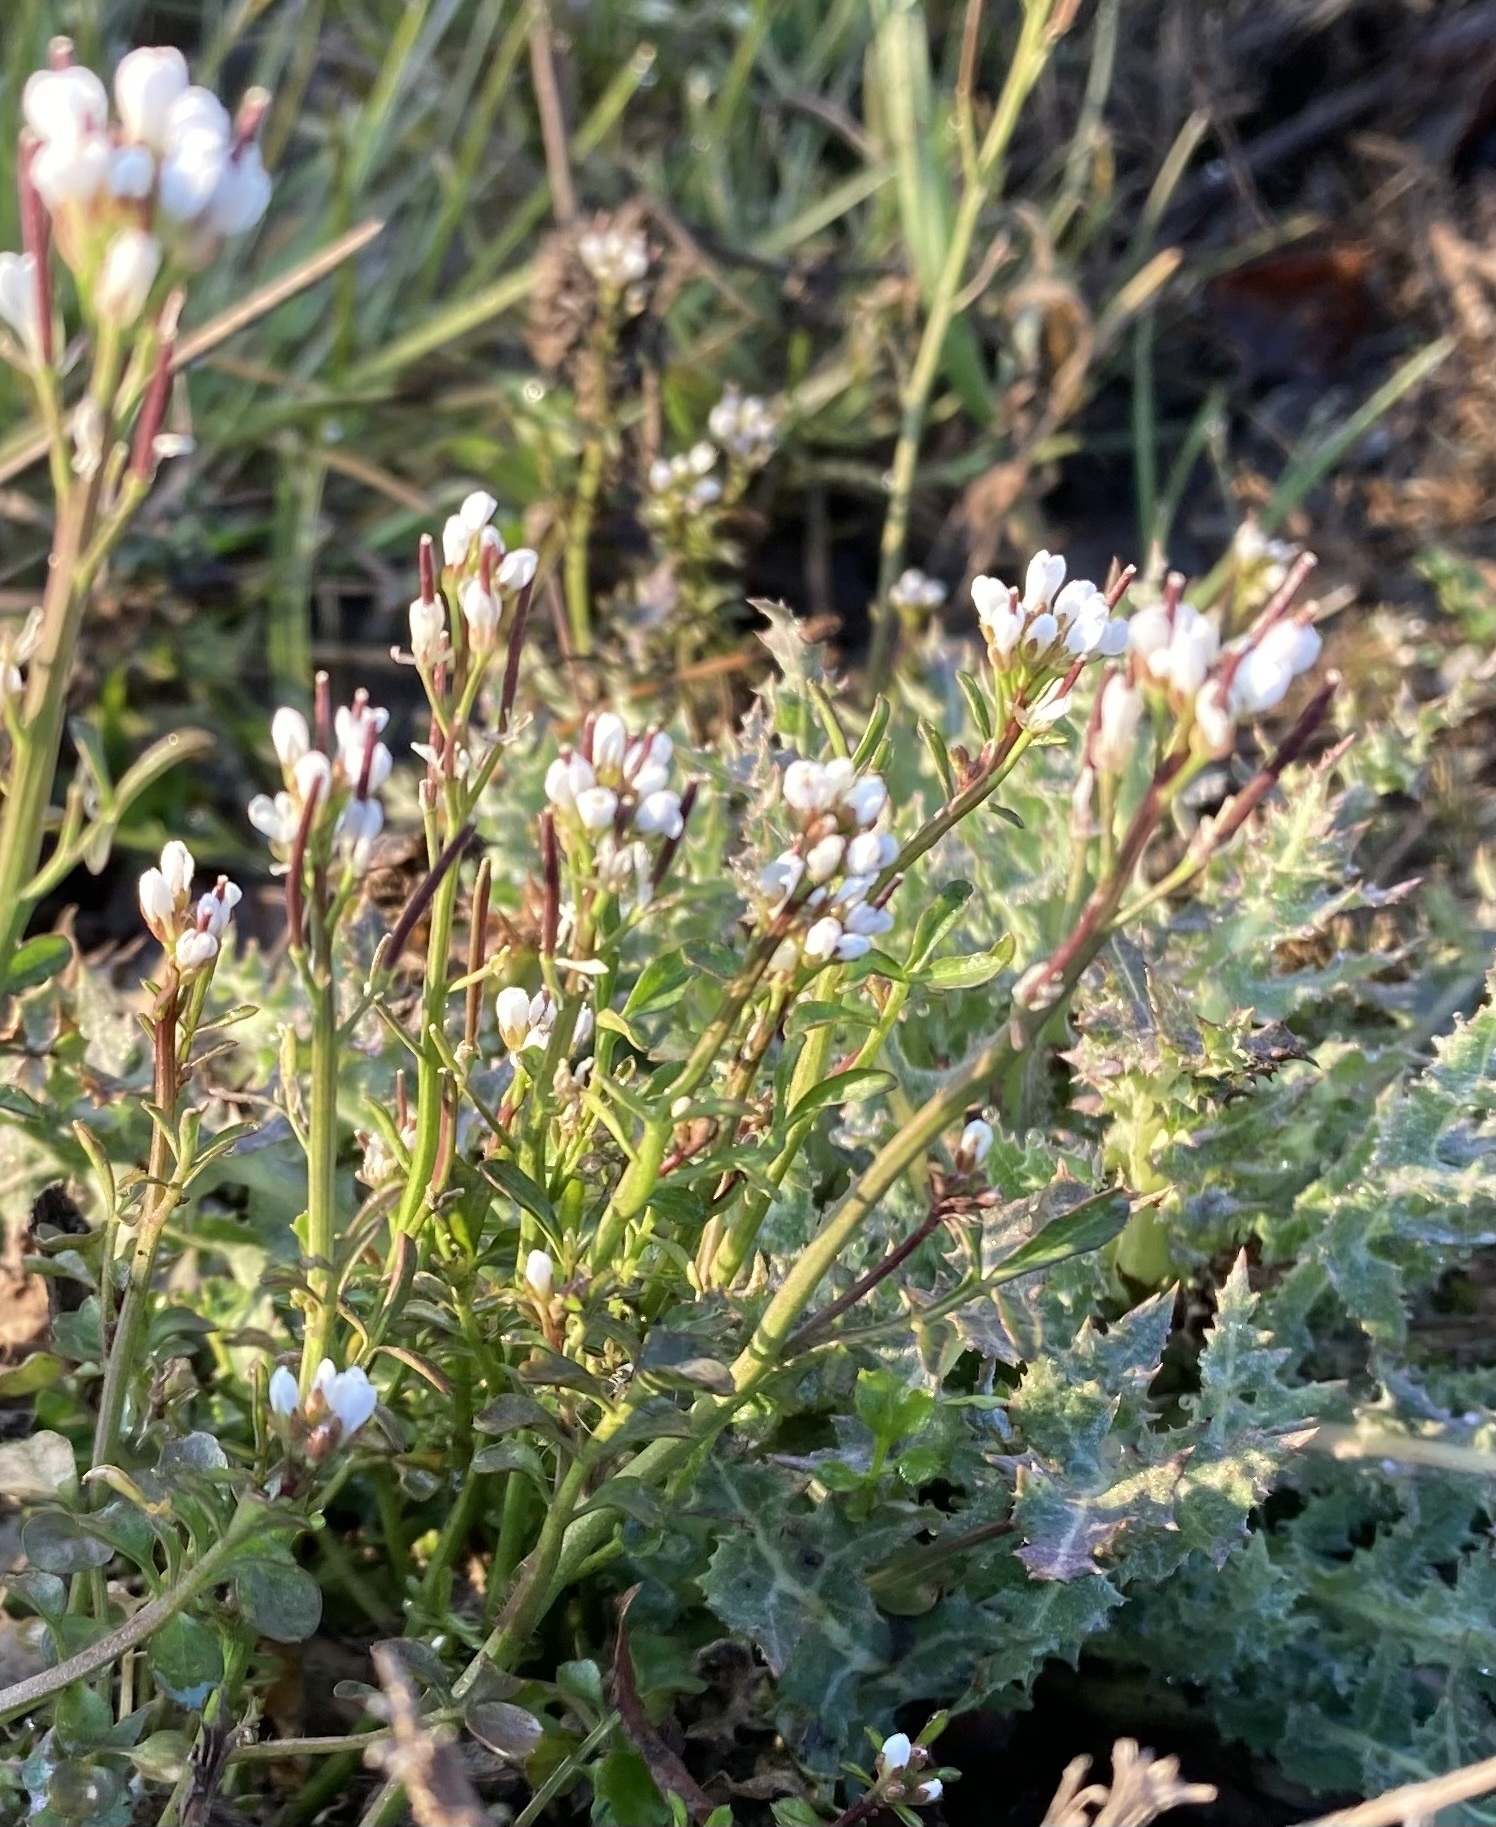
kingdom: Plantae
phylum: Tracheophyta
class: Magnoliopsida
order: Brassicales
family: Brassicaceae
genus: Cardamine
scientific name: Cardamine hirsuta
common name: Hairy bittercress
